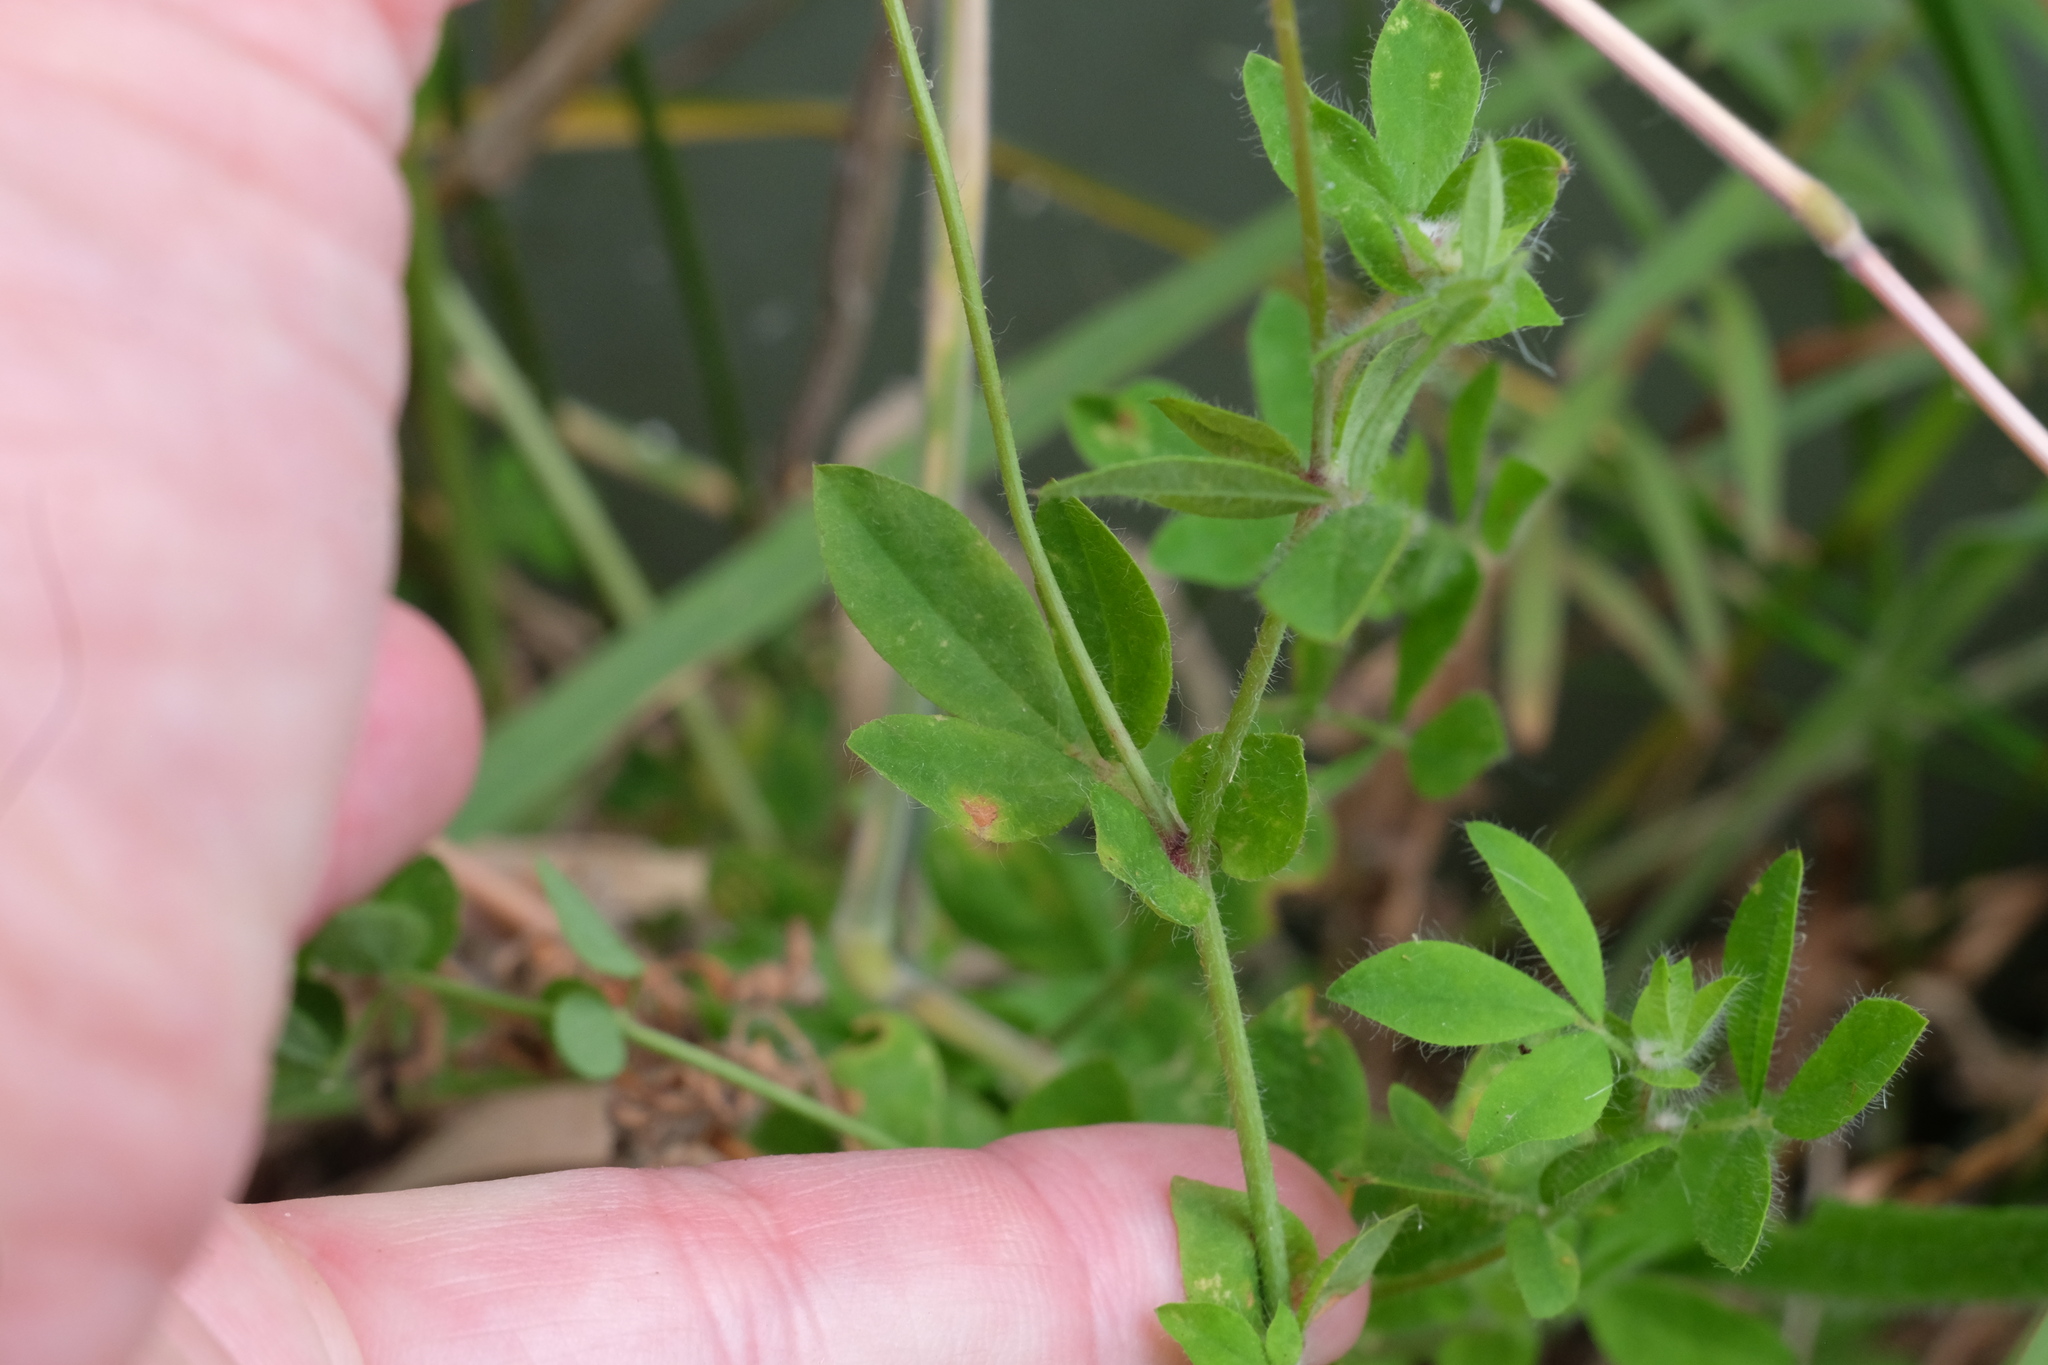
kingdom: Plantae
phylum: Tracheophyta
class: Magnoliopsida
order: Fabales
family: Fabaceae
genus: Lotus
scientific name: Lotus pedunculatus
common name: Greater birdsfoot-trefoil
